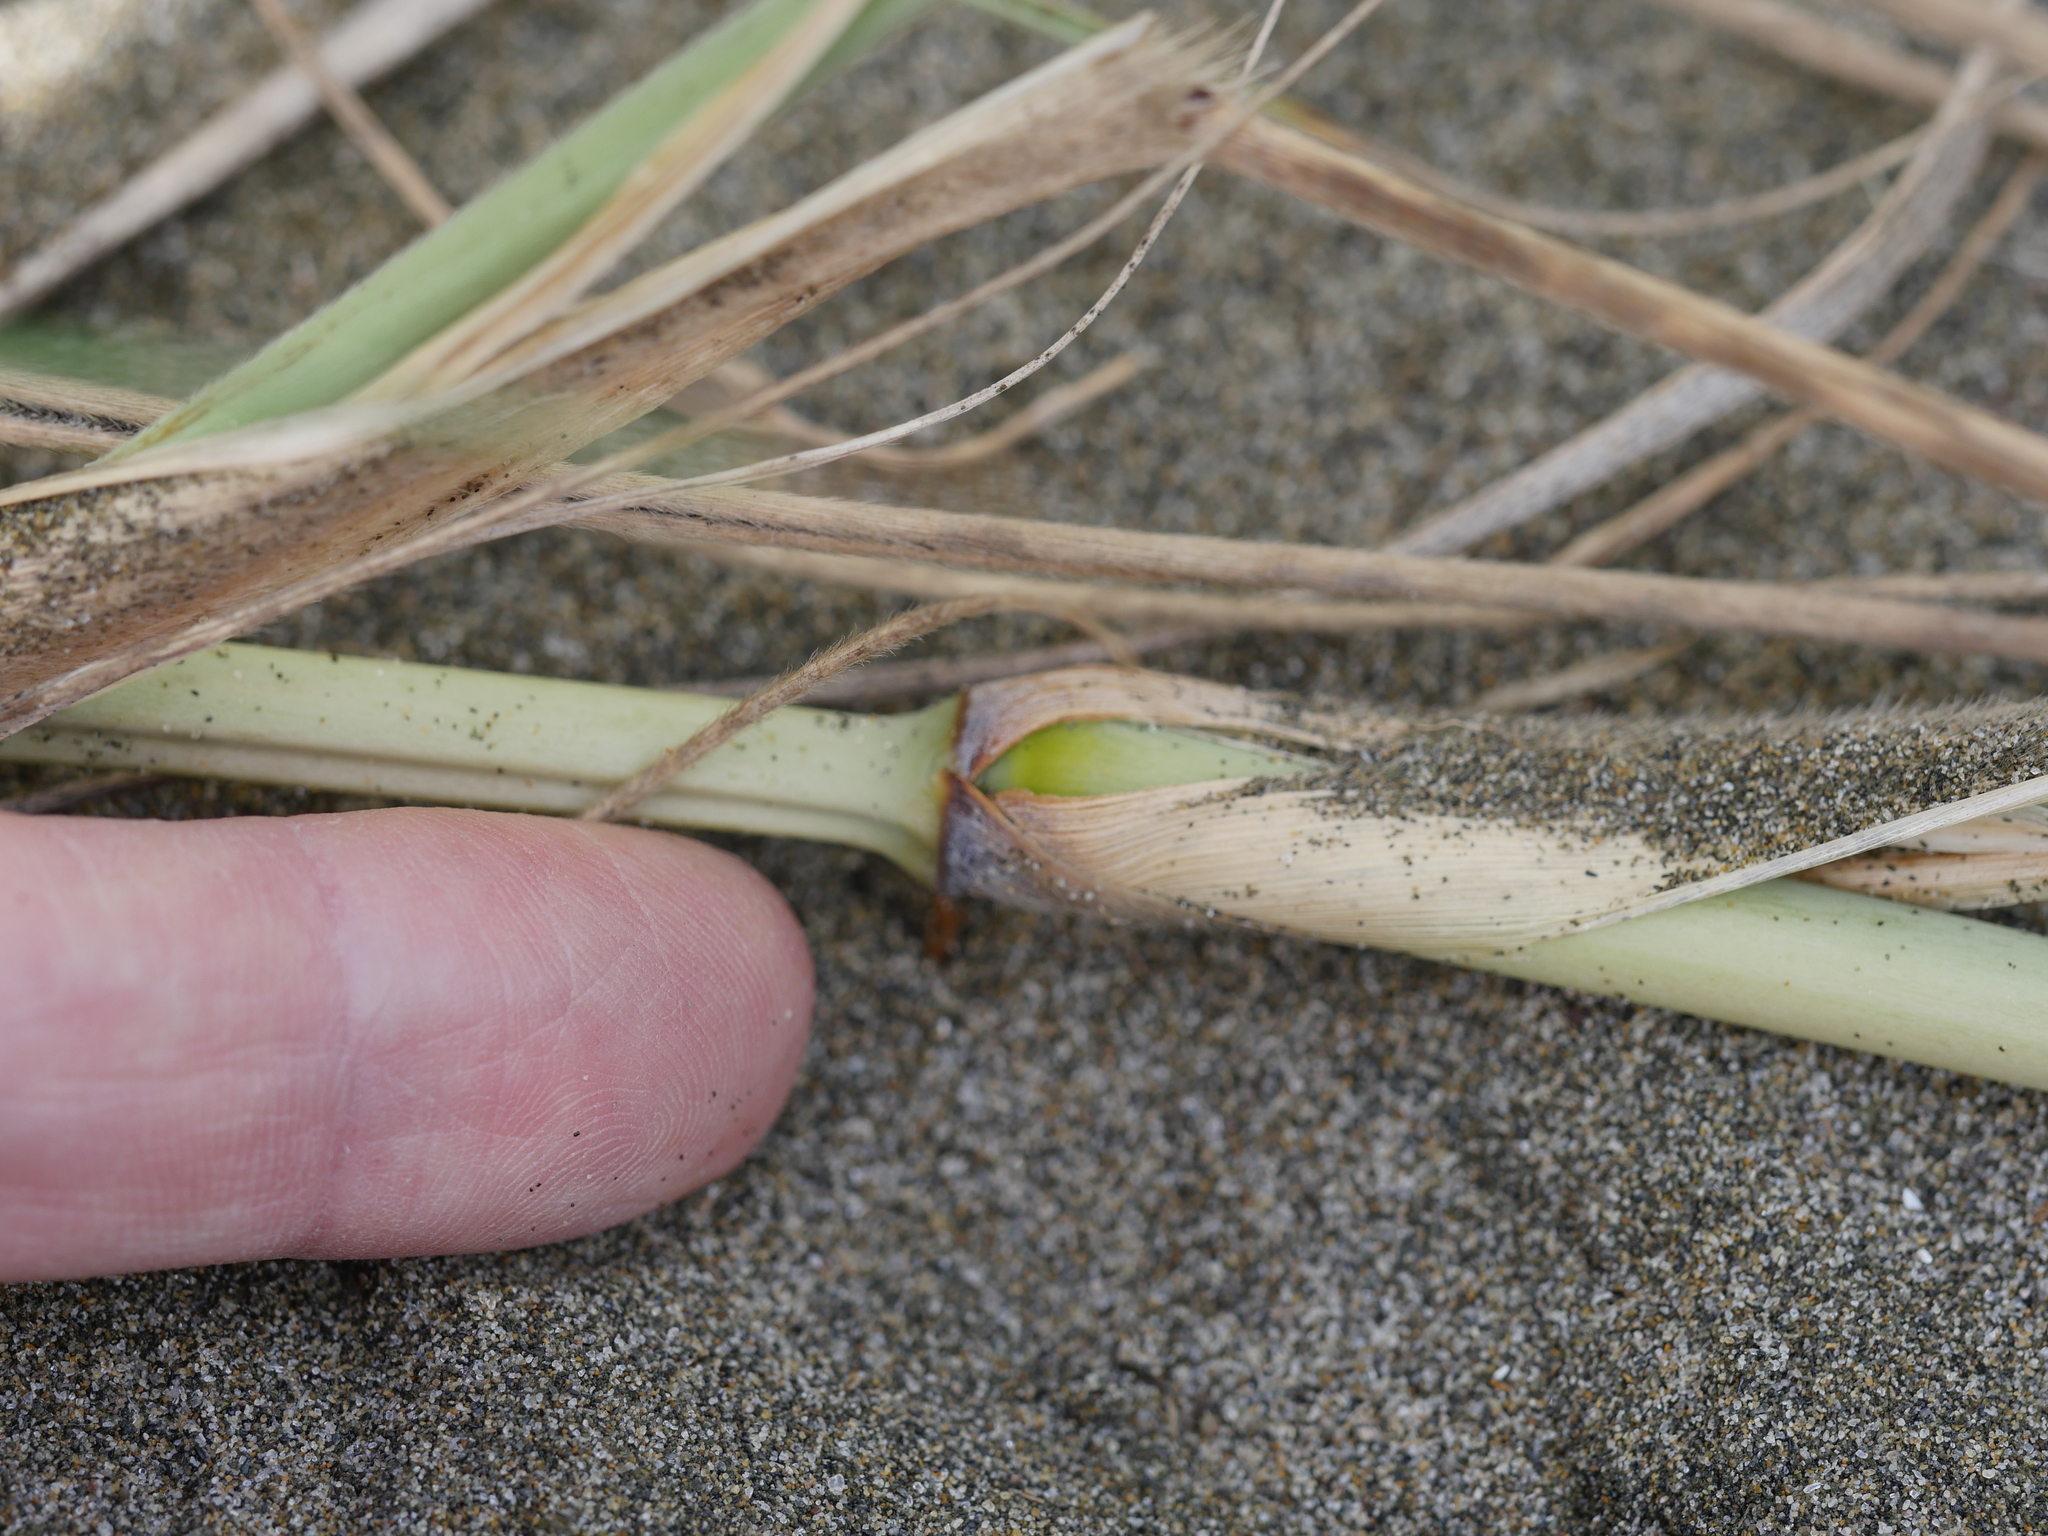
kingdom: Plantae
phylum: Tracheophyta
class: Liliopsida
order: Poales
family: Poaceae
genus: Spinifex
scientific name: Spinifex sericeus
